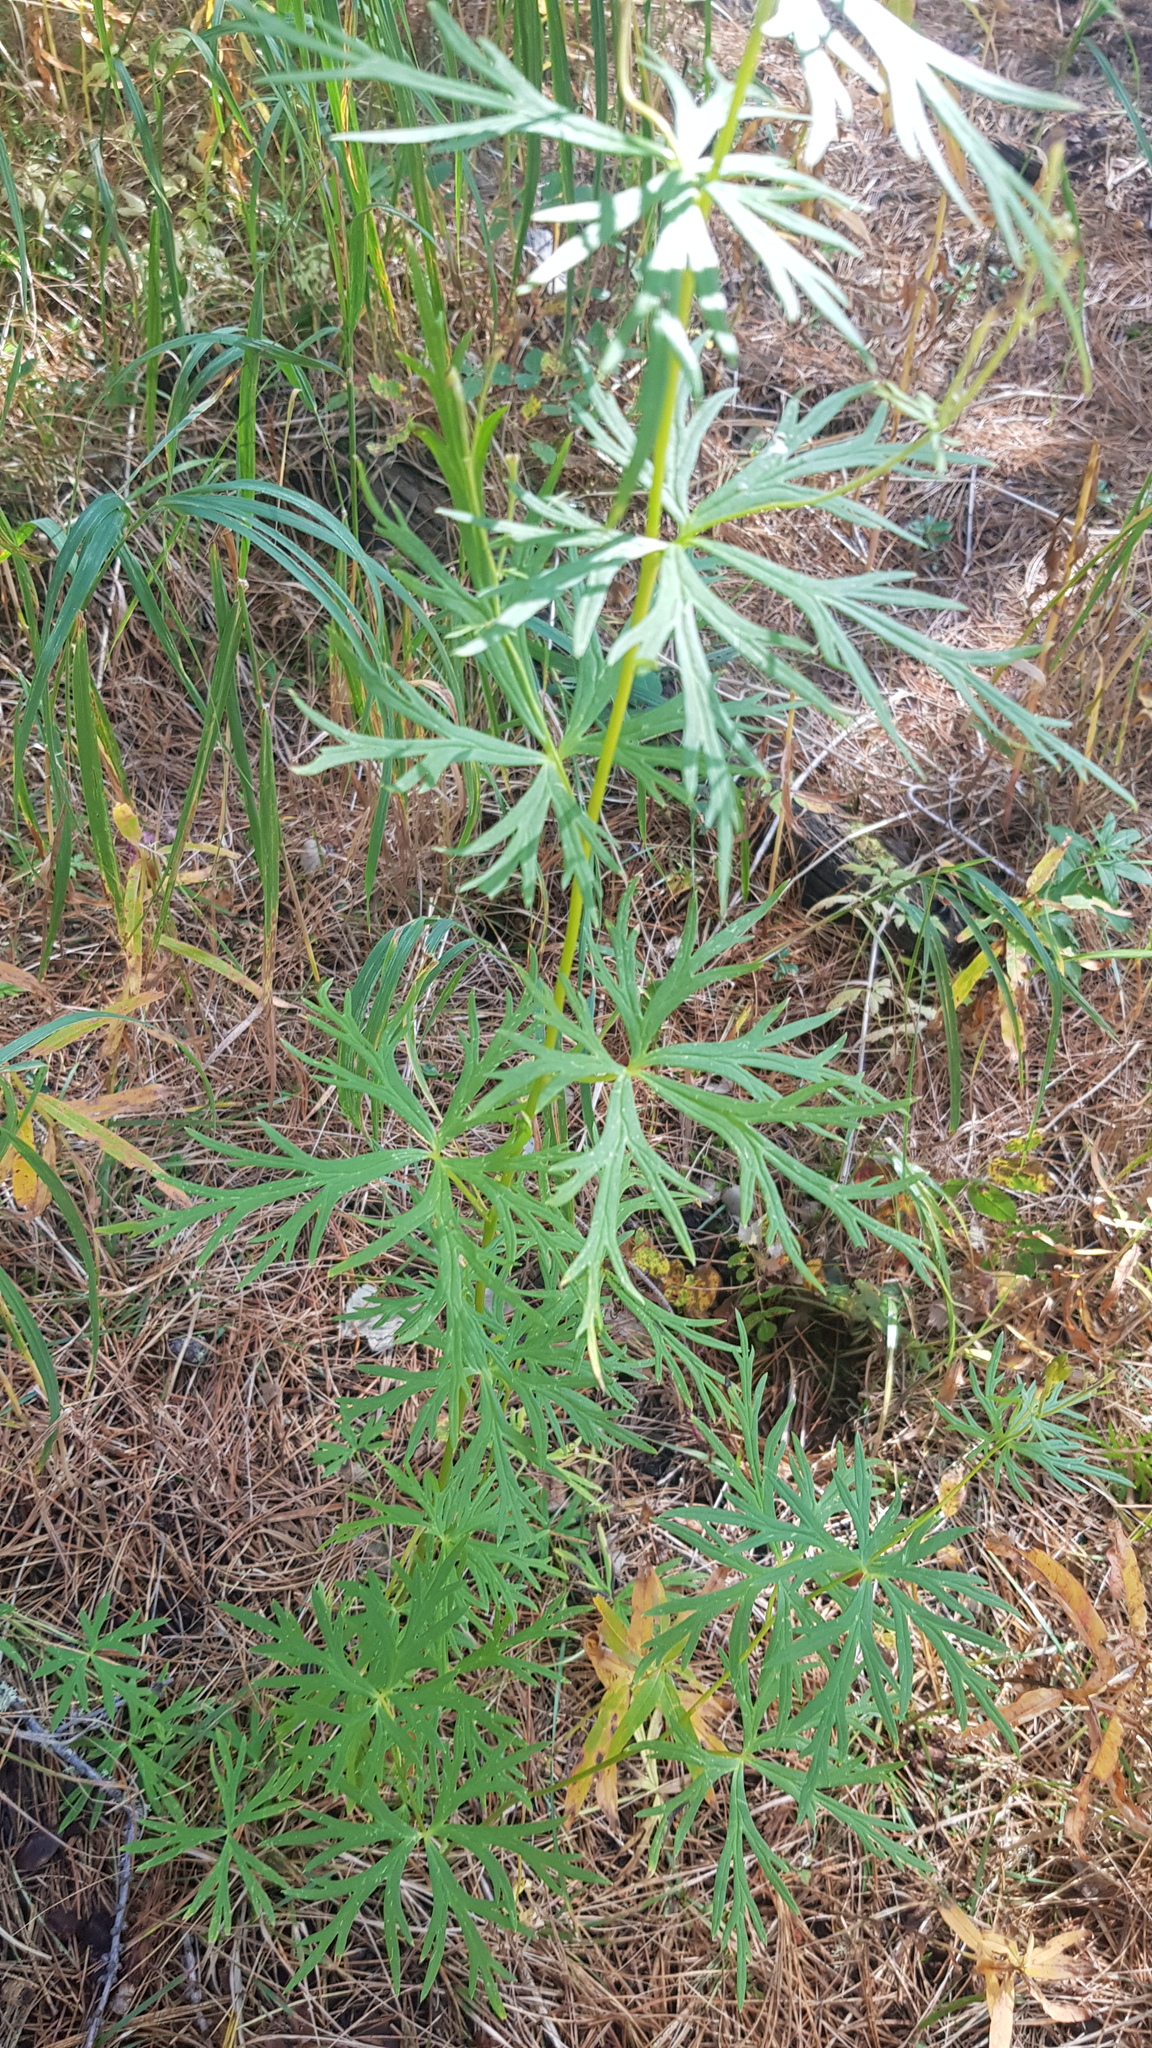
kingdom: Plantae
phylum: Tracheophyta
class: Magnoliopsida
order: Ranunculales
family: Ranunculaceae
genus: Aconitum
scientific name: Aconitum baicalense
